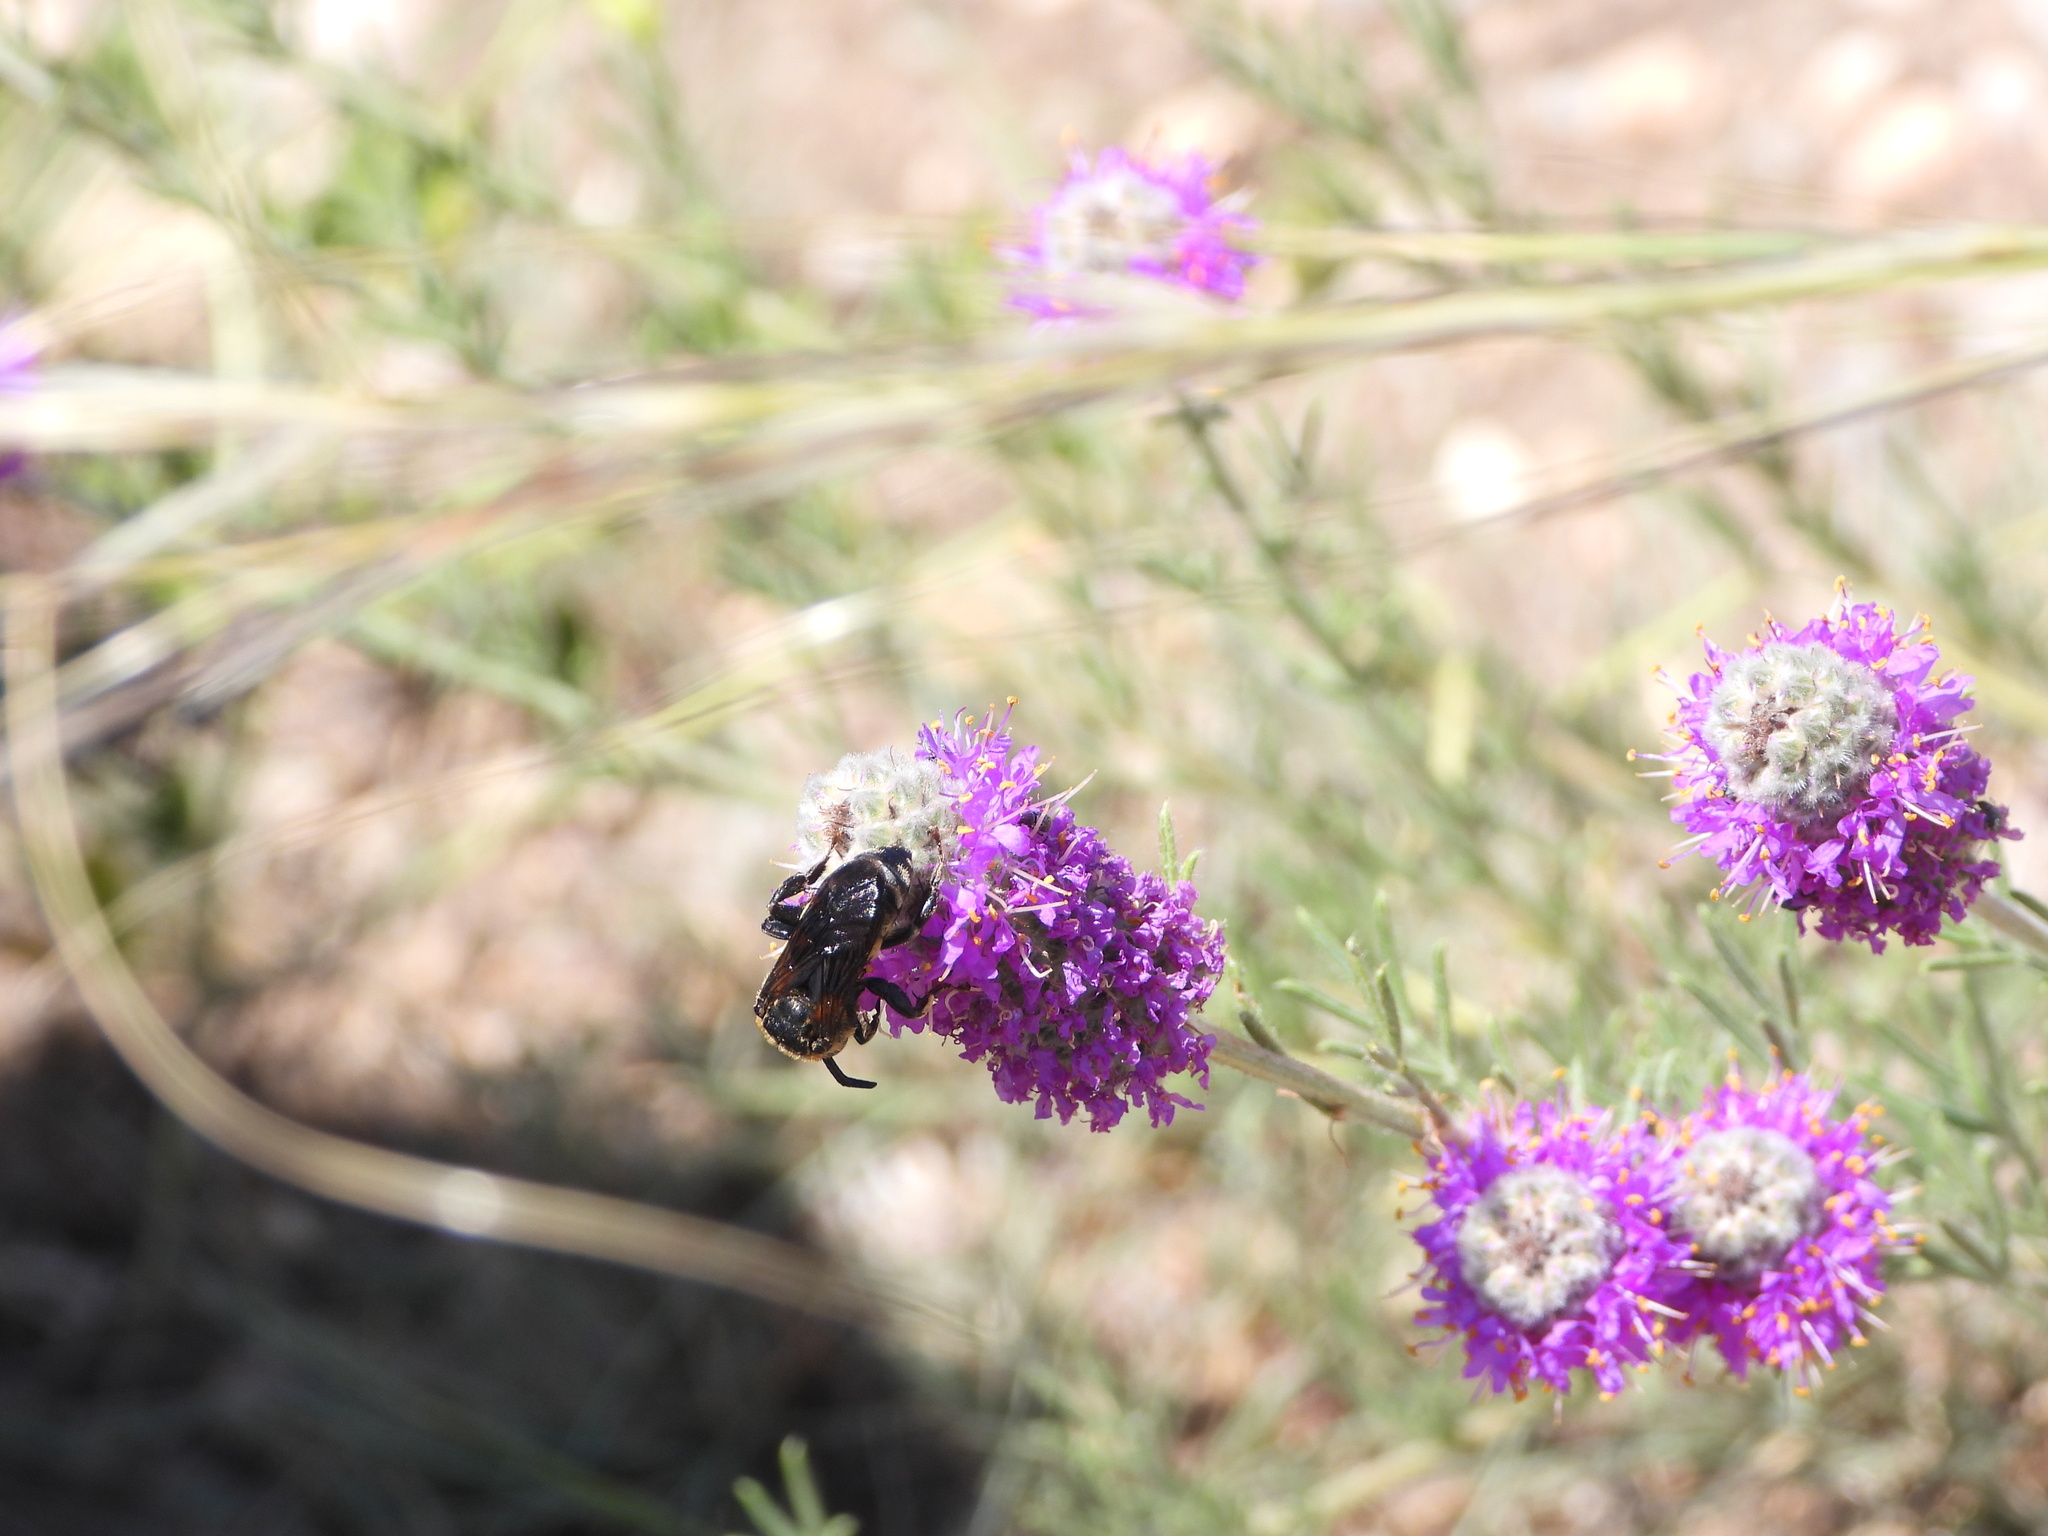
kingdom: Animalia
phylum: Arthropoda
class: Insecta
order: Hymenoptera
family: Apidae
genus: Xeromelecta
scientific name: Xeromelecta interrupta
